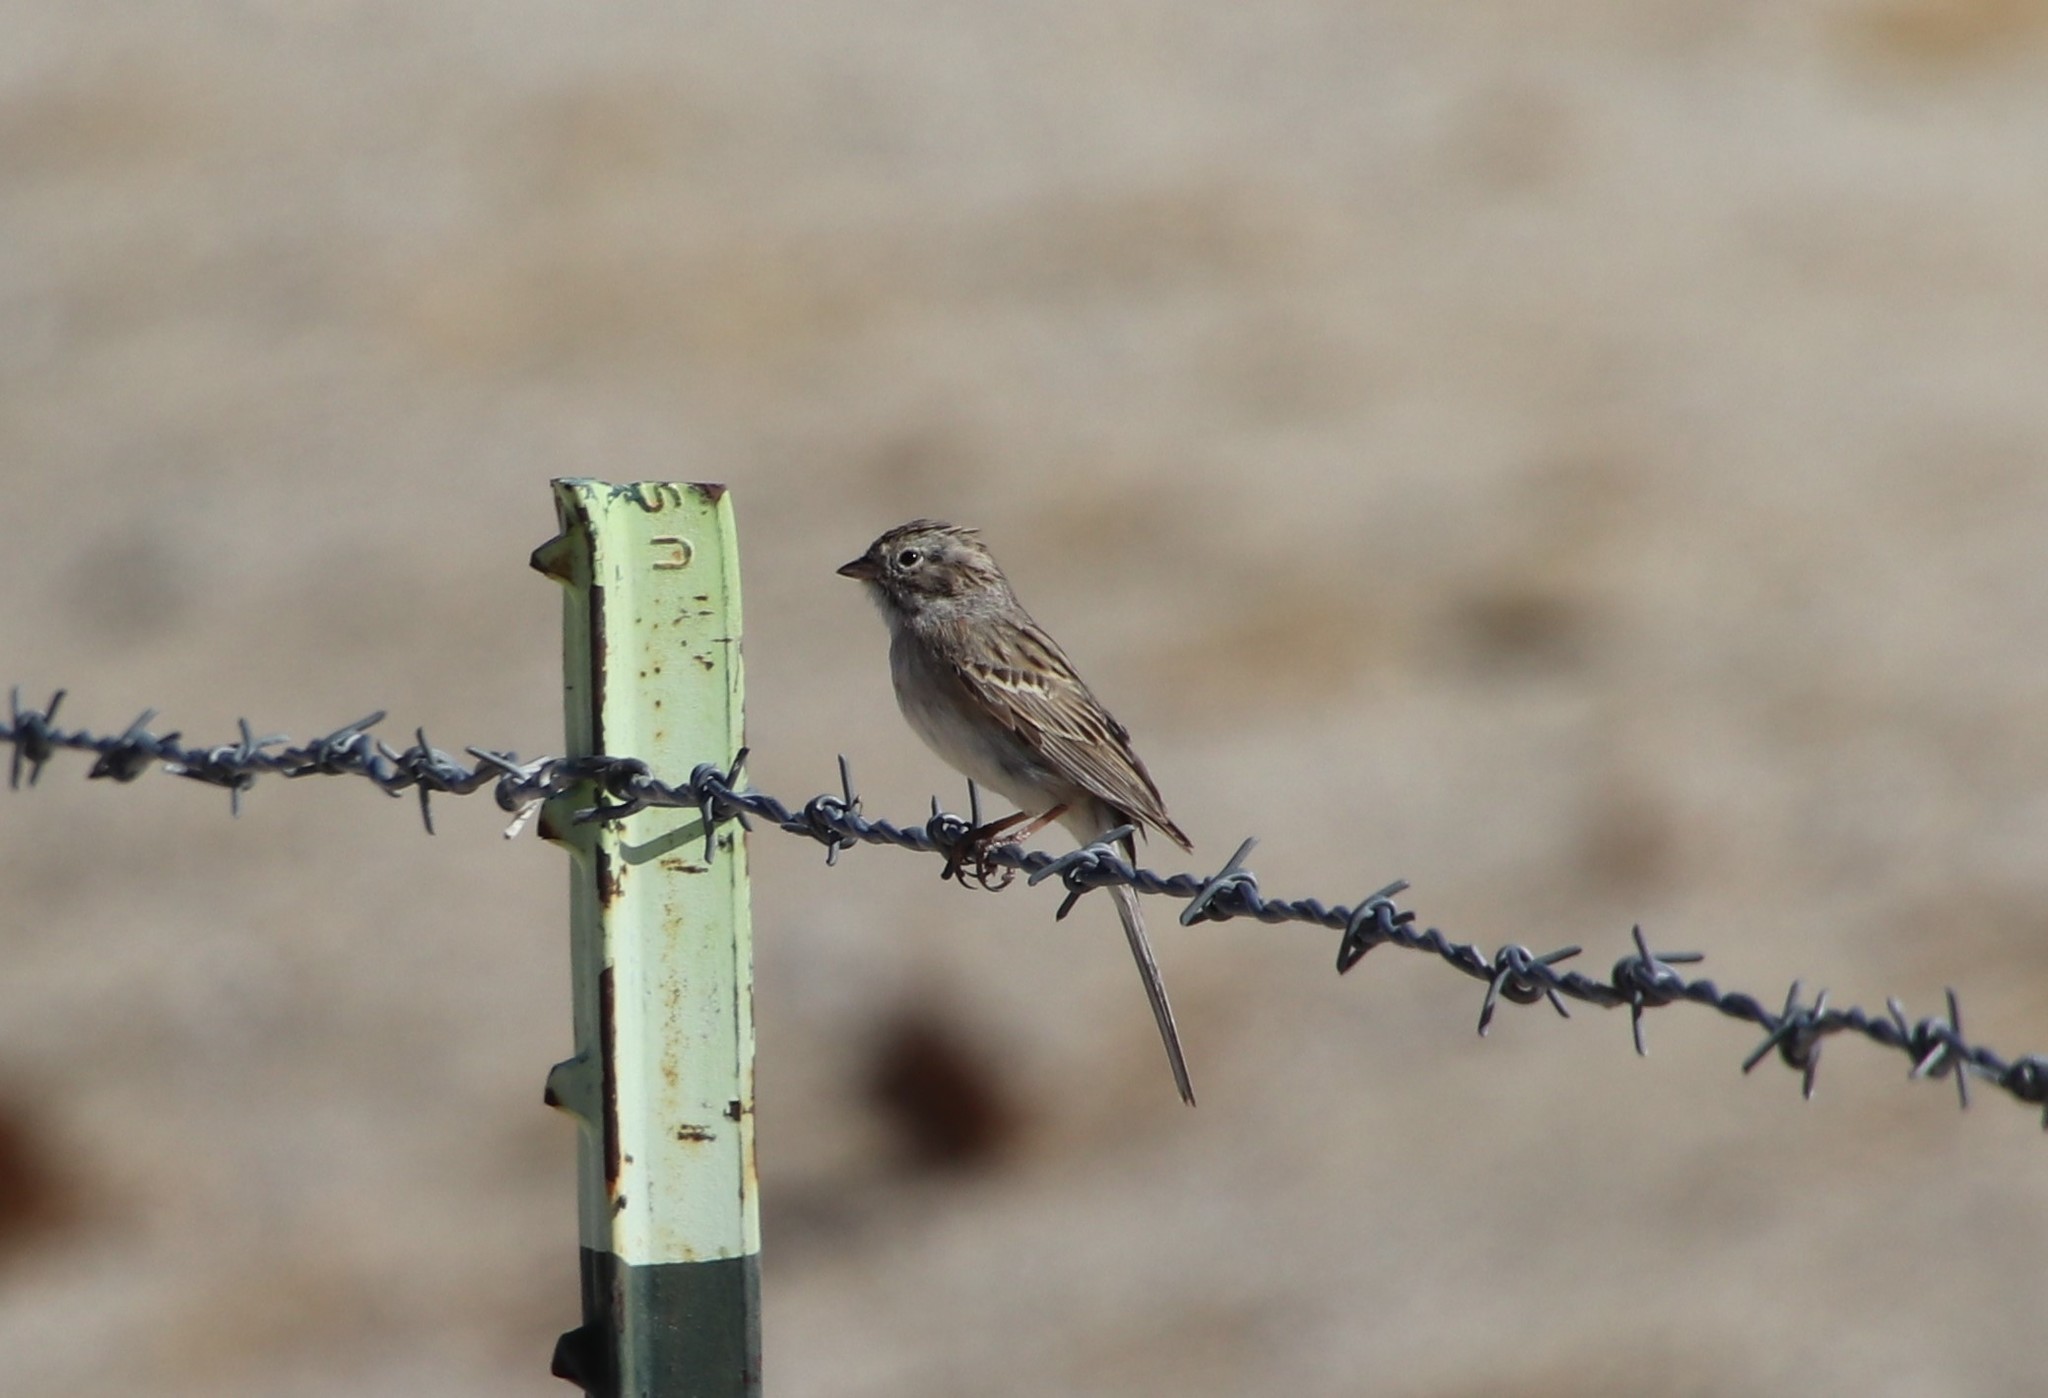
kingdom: Animalia
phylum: Chordata
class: Aves
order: Passeriformes
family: Passerellidae
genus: Spizella
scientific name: Spizella breweri
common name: Brewer's sparrow
